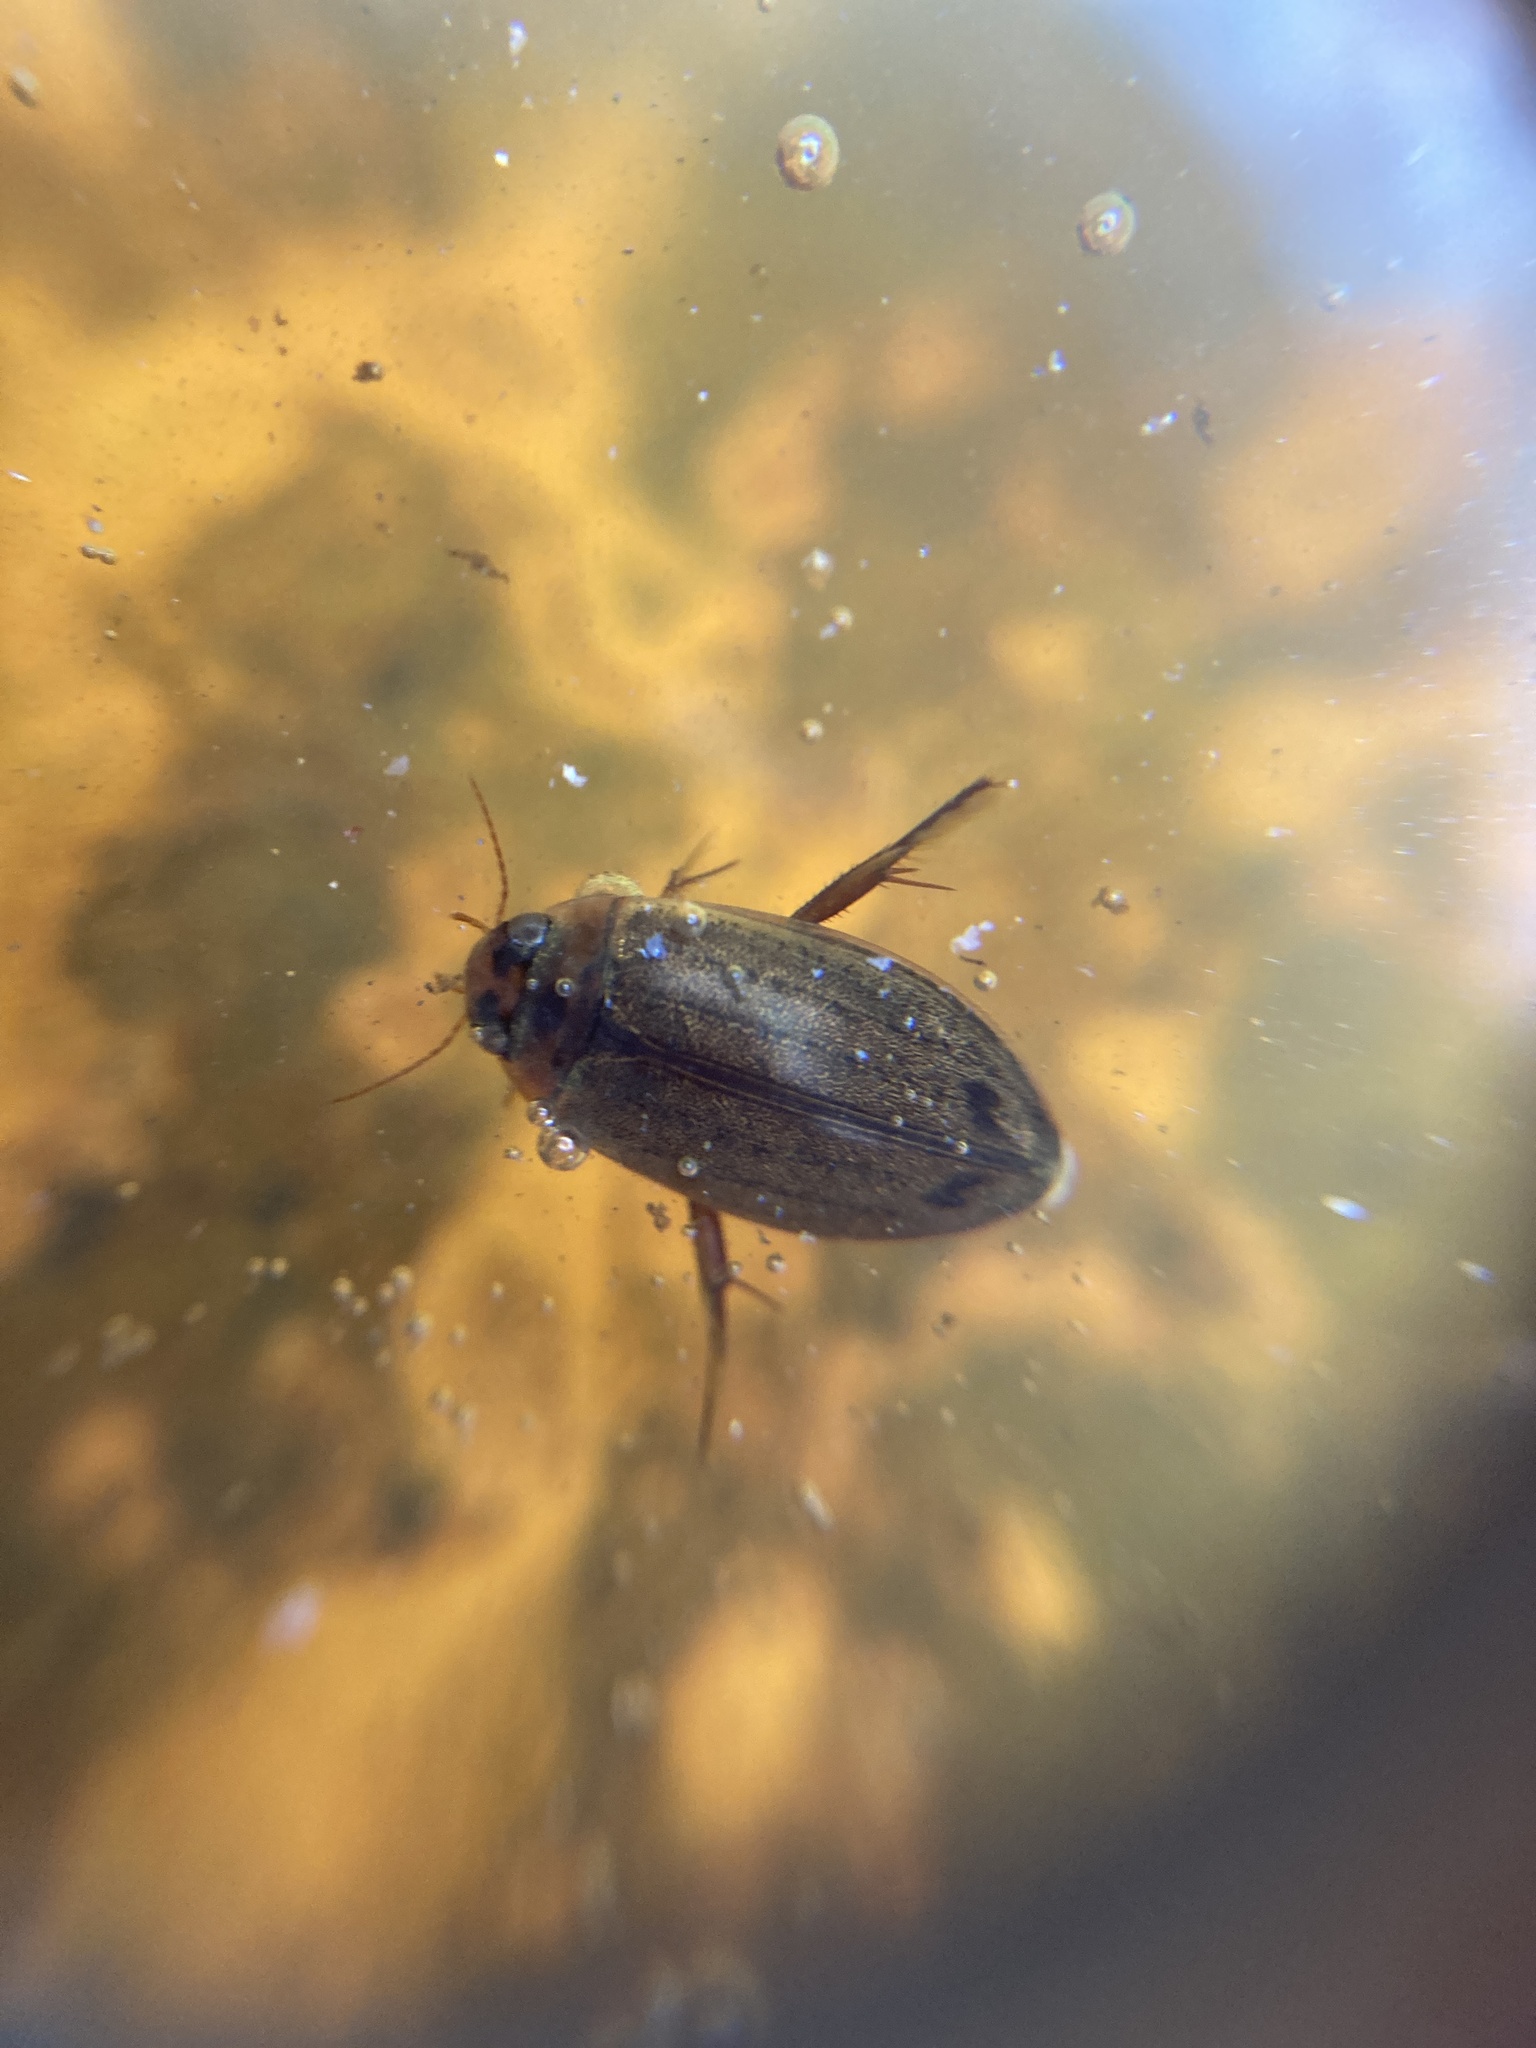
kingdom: Animalia
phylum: Arthropoda
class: Insecta
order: Coleoptera
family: Dytiscidae
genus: Rhantus
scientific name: Rhantus suturalis
